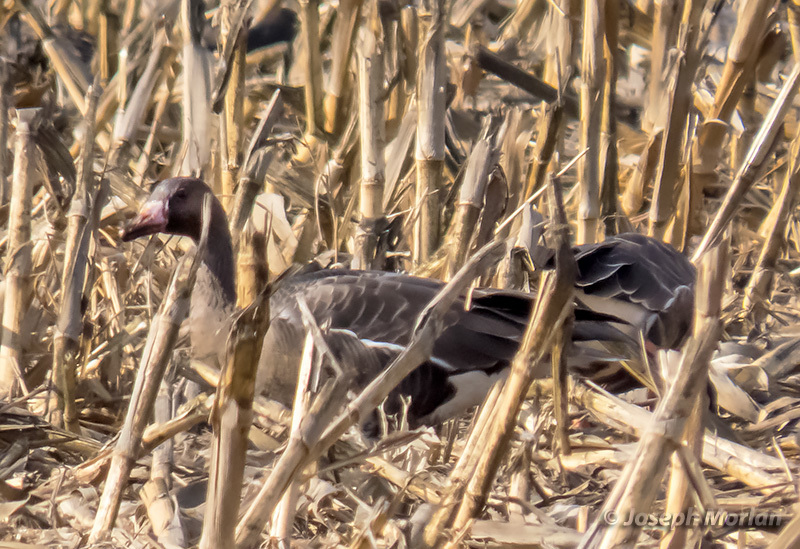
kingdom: Animalia
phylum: Chordata
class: Aves
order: Anseriformes
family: Anatidae
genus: Anser
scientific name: Anser albifrons
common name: Greater white-fronted goose
